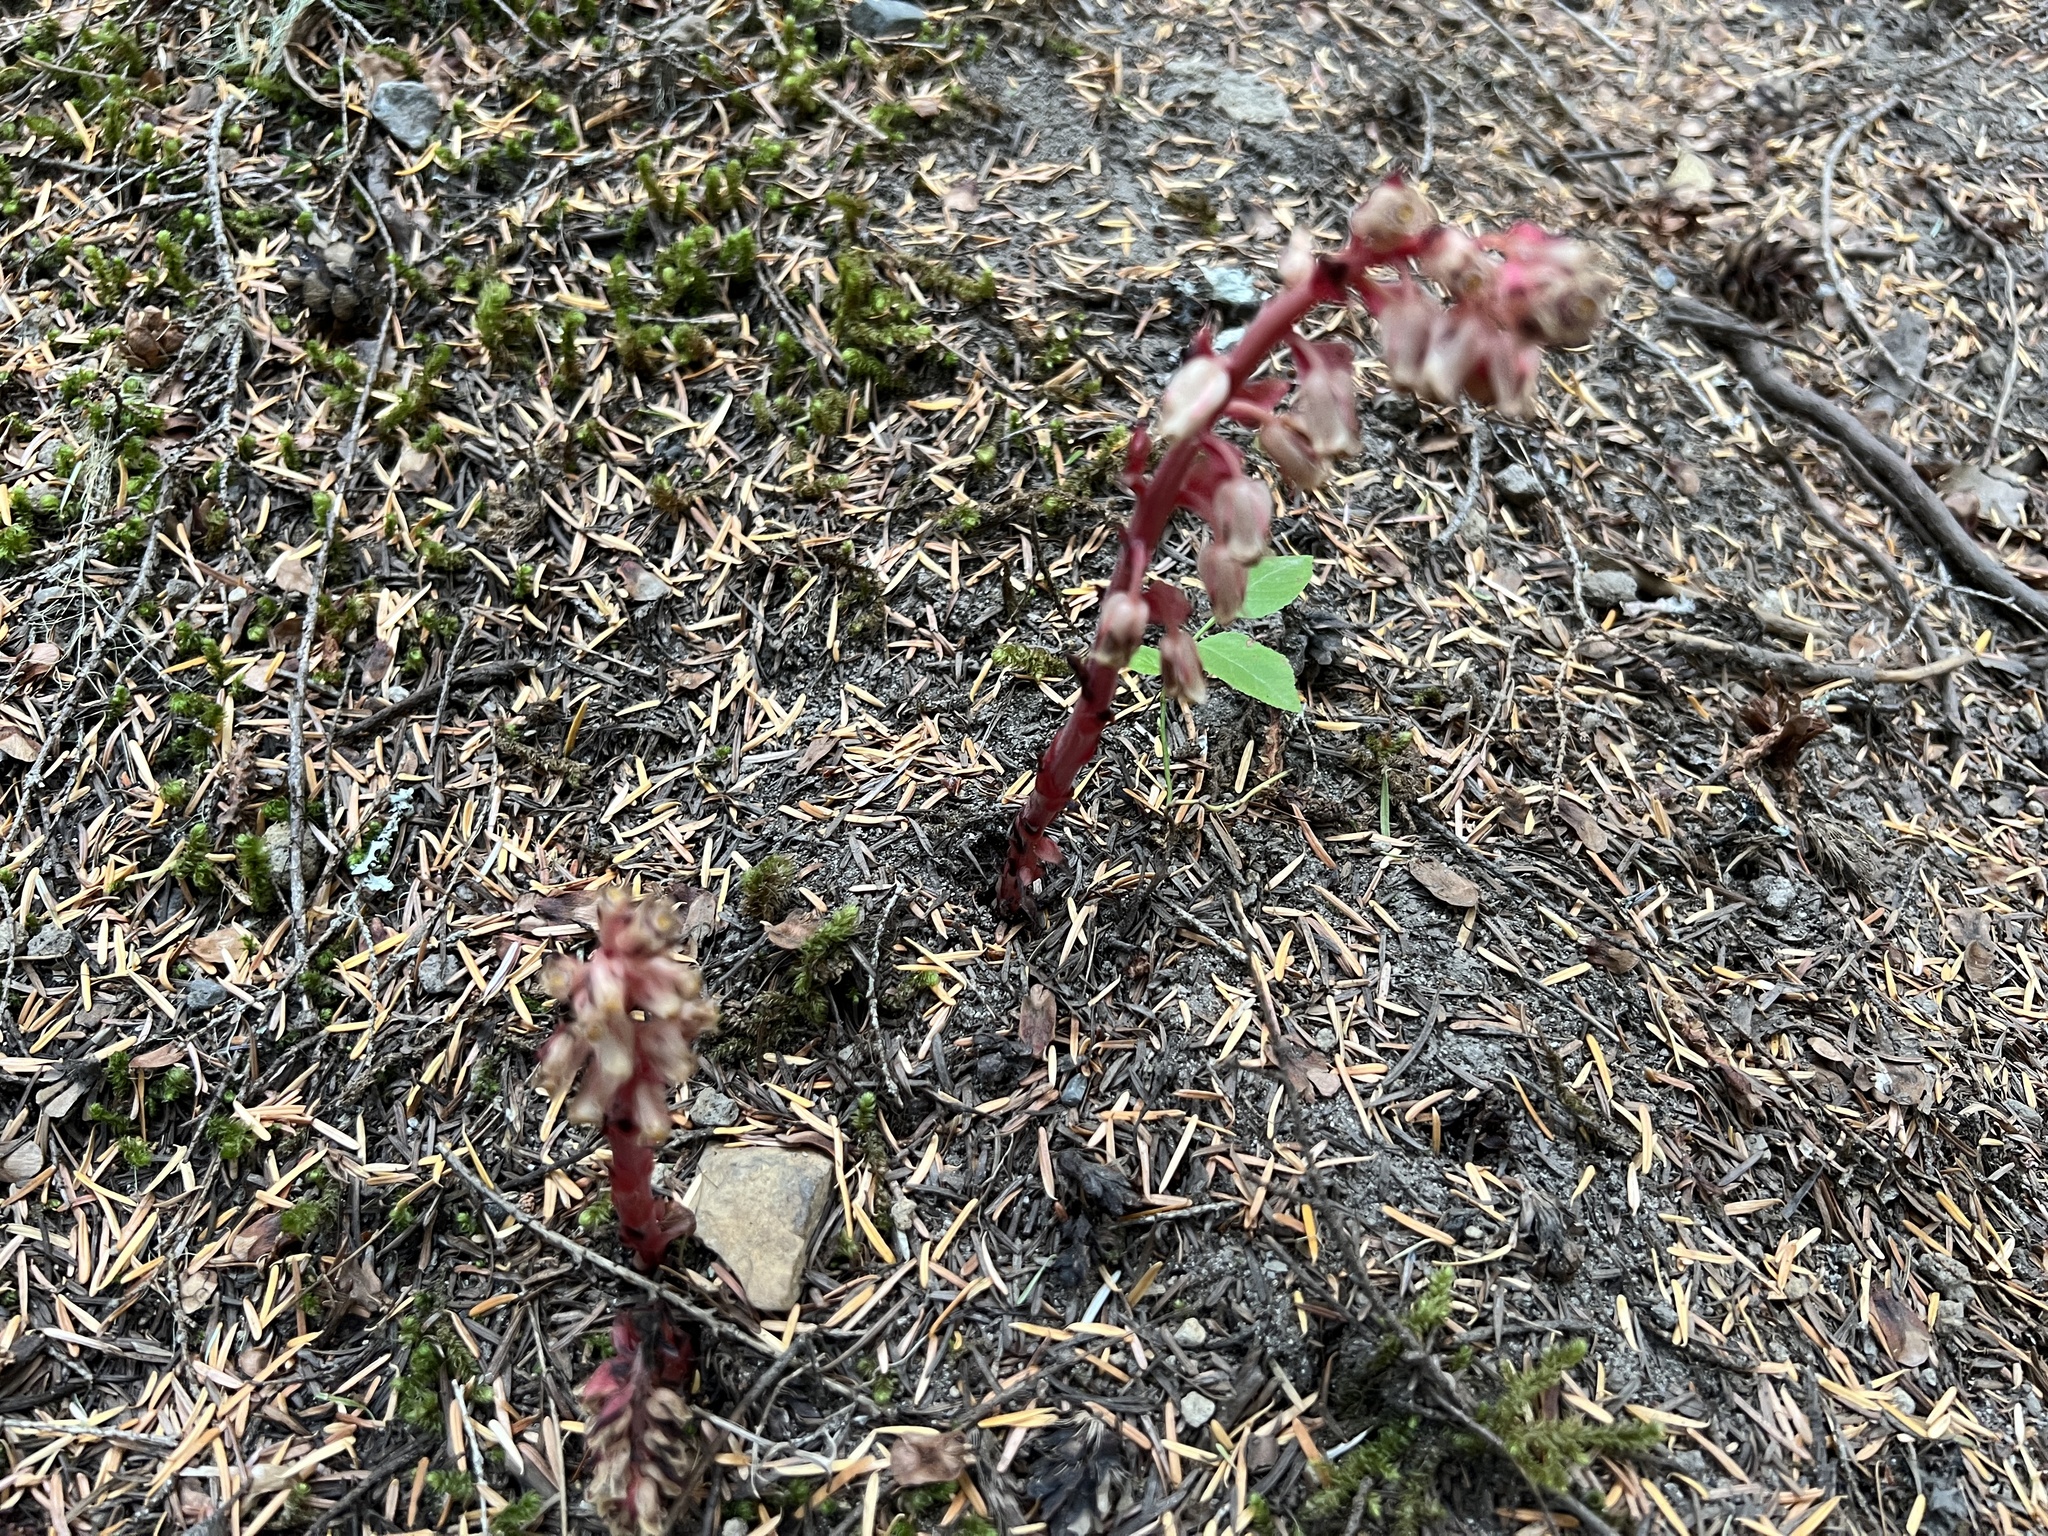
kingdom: Plantae
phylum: Tracheophyta
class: Magnoliopsida
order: Ericales
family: Ericaceae
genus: Hypopitys
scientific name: Hypopitys monotropa
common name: Yellow bird's-nest
